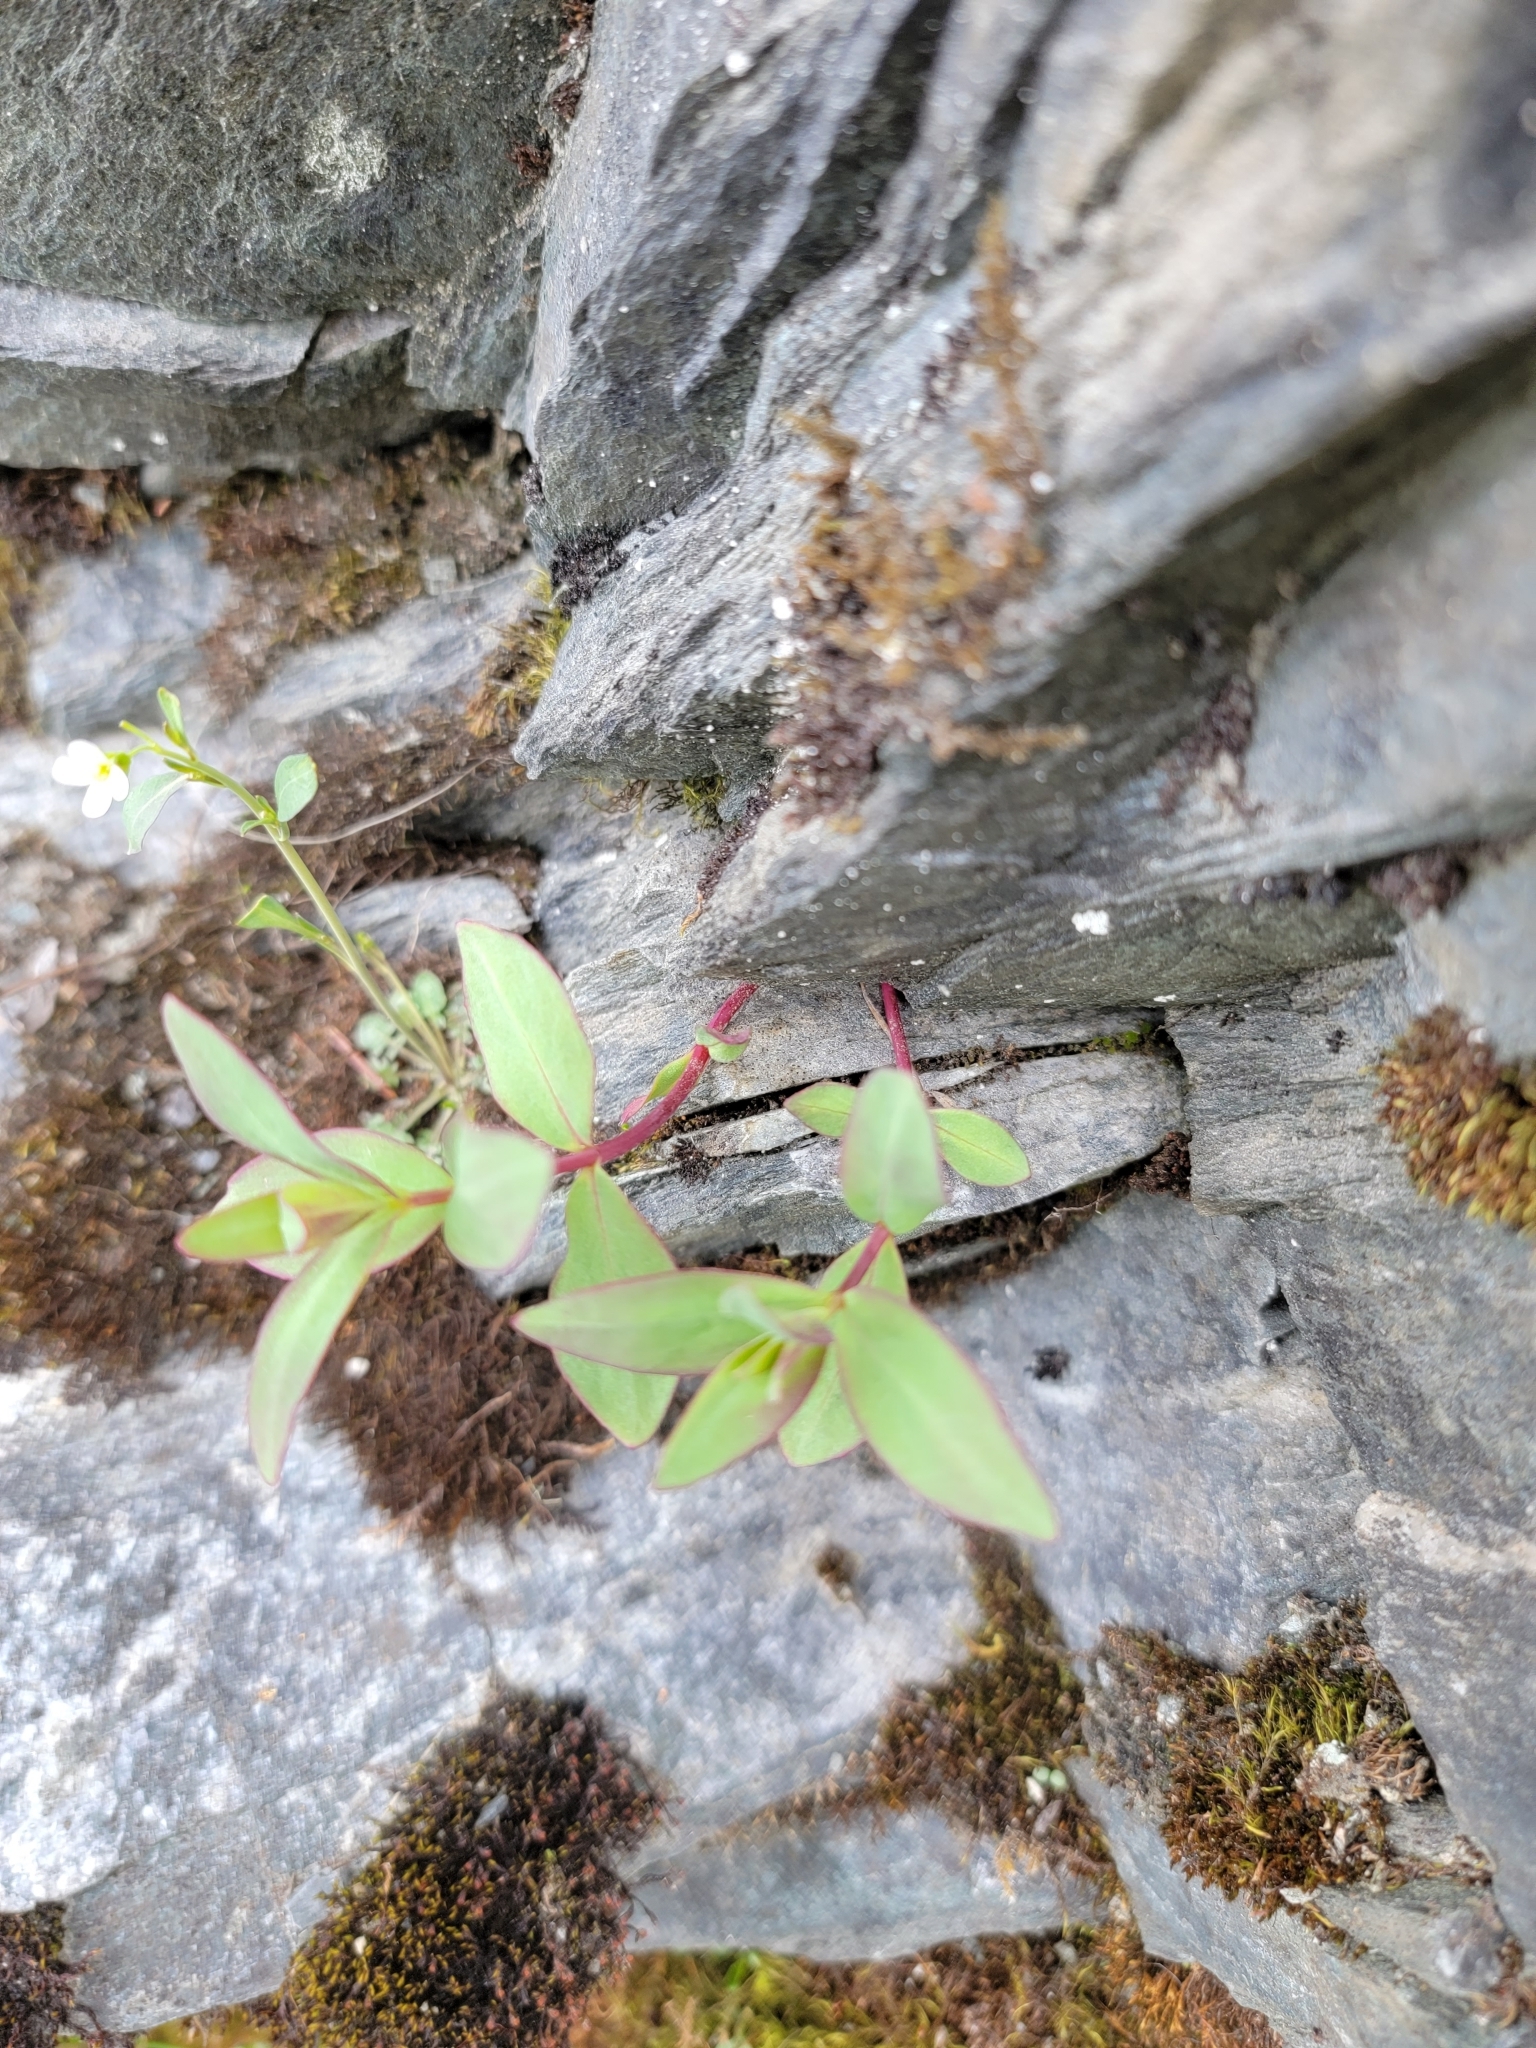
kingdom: Plantae
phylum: Tracheophyta
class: Magnoliopsida
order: Myrtales
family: Onagraceae
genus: Chamaenerion
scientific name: Chamaenerion latifolium
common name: Dwarf fireweed
